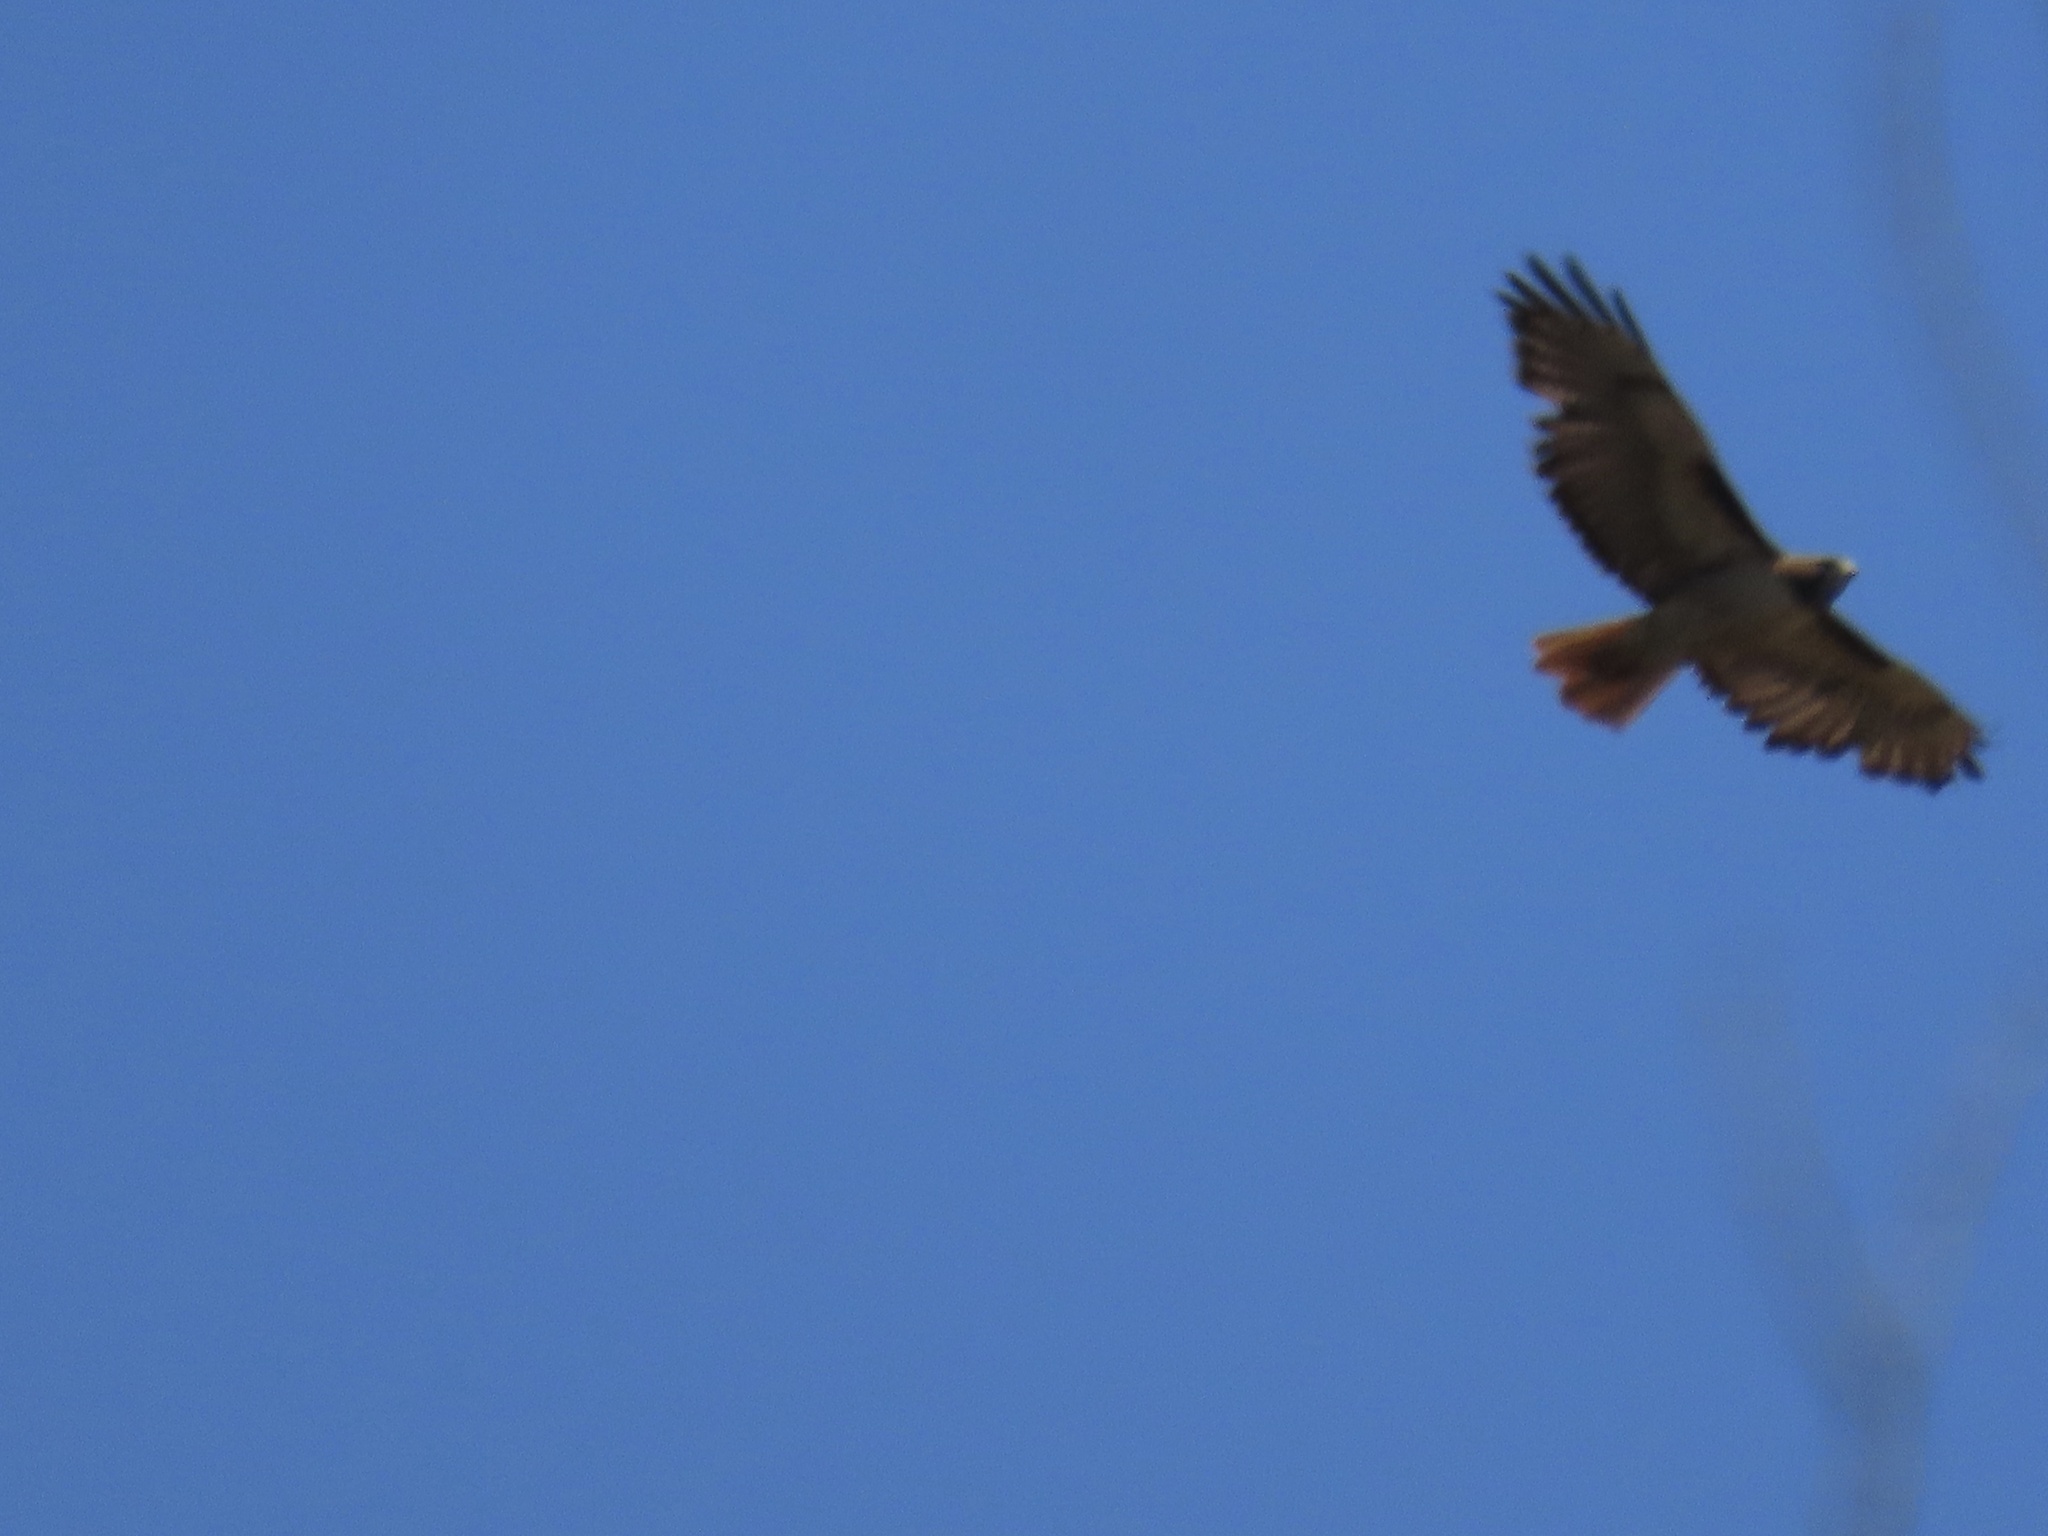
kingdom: Animalia
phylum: Chordata
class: Aves
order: Accipitriformes
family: Accipitridae
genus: Buteo
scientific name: Buteo jamaicensis
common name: Red-tailed hawk
